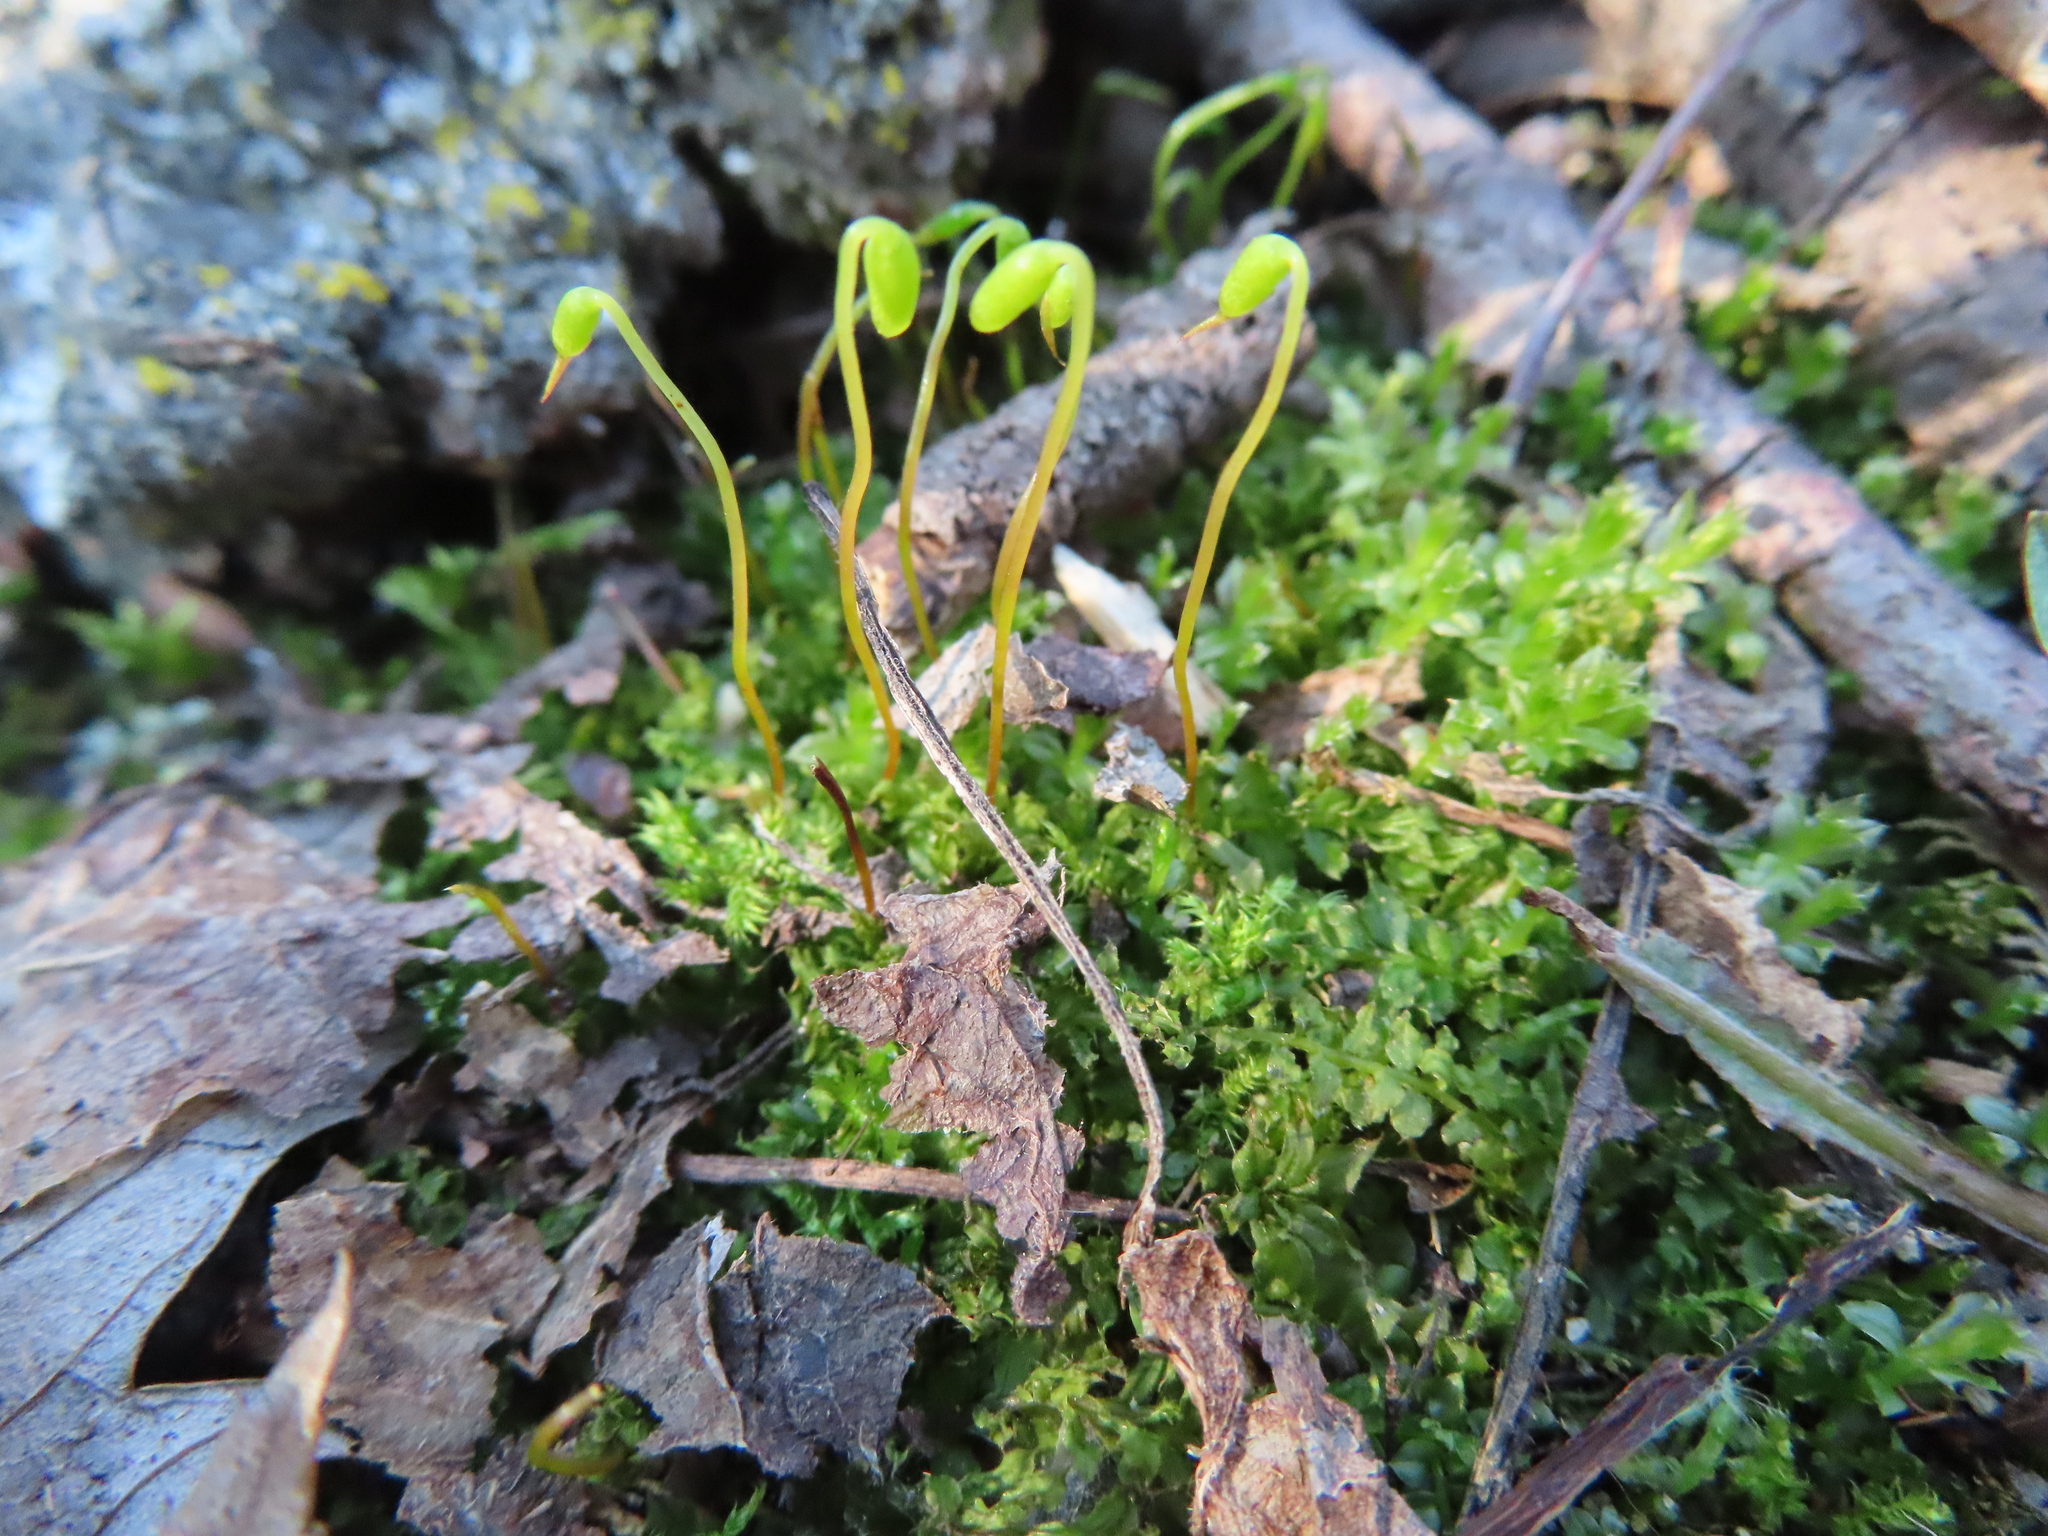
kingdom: Plantae
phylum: Bryophyta
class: Bryopsida
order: Bryales
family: Mniaceae
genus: Plagiomnium
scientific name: Plagiomnium cuspidatum
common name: Woodsy leafy moss
